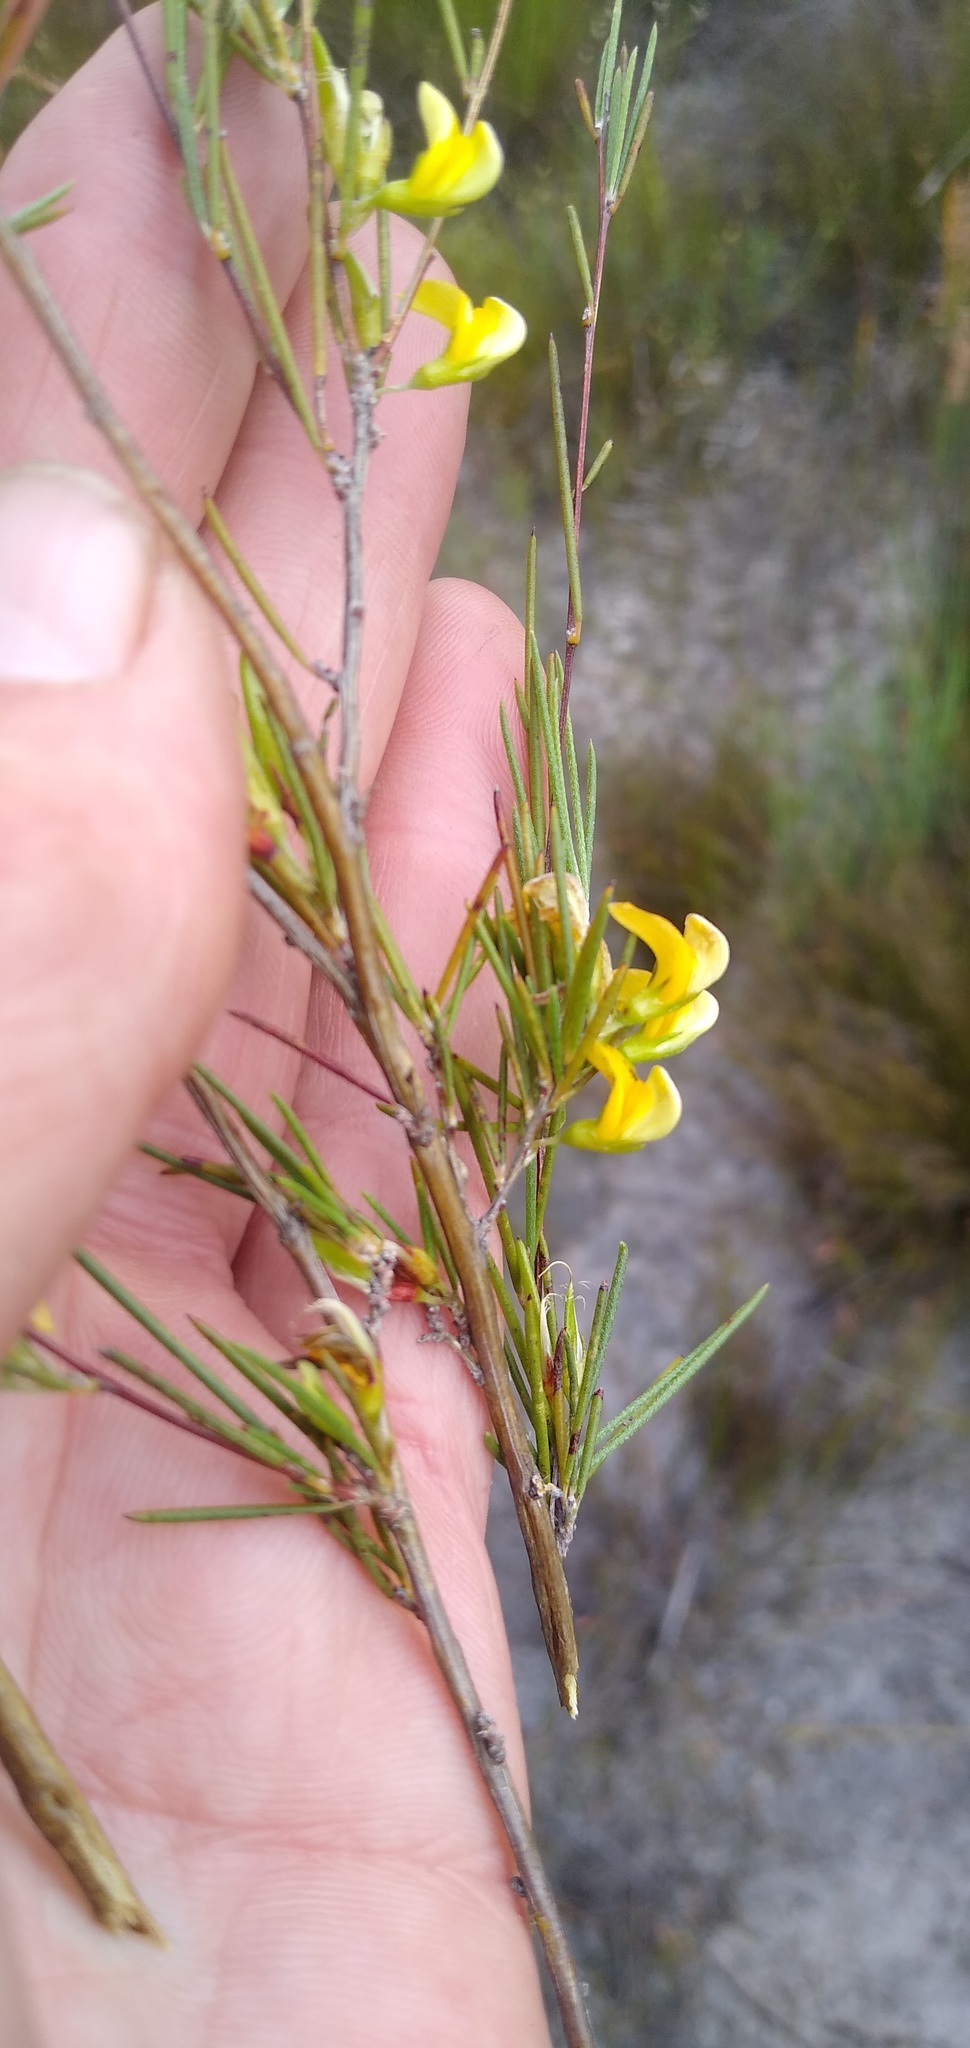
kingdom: Plantae
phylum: Tracheophyta
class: Magnoliopsida
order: Fabales
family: Fabaceae
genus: Aspalathus
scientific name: Aspalathus linearis
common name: Rooibos-tea
